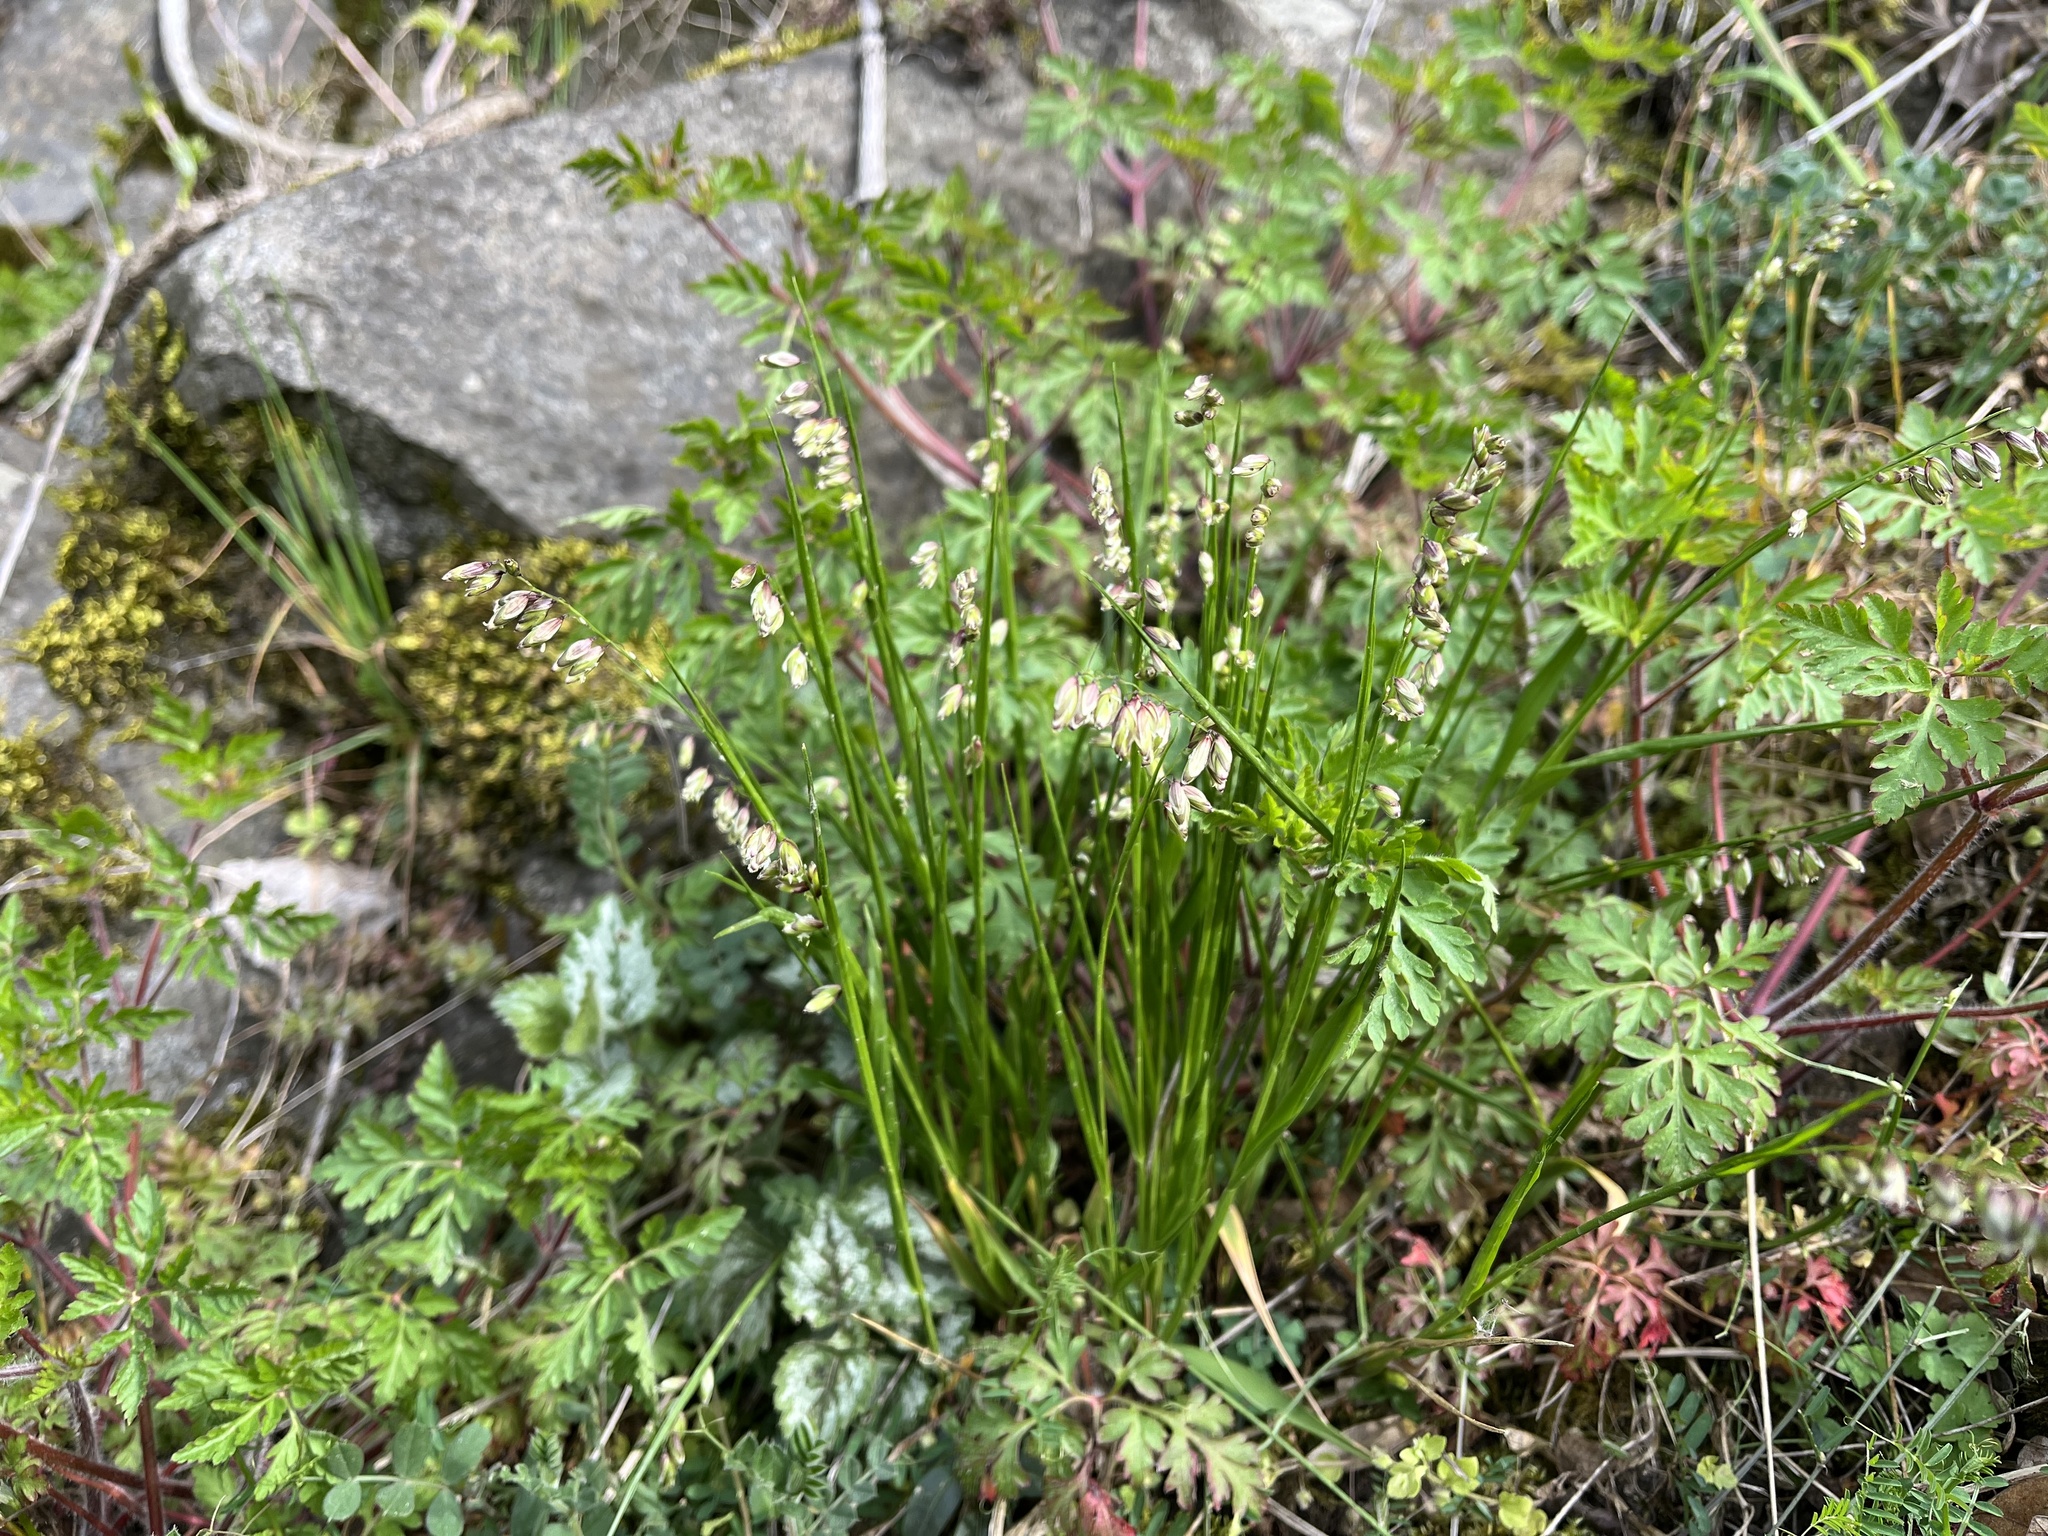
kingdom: Plantae
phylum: Tracheophyta
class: Liliopsida
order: Poales
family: Poaceae
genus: Melica
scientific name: Melica nutans
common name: Mountain melick
